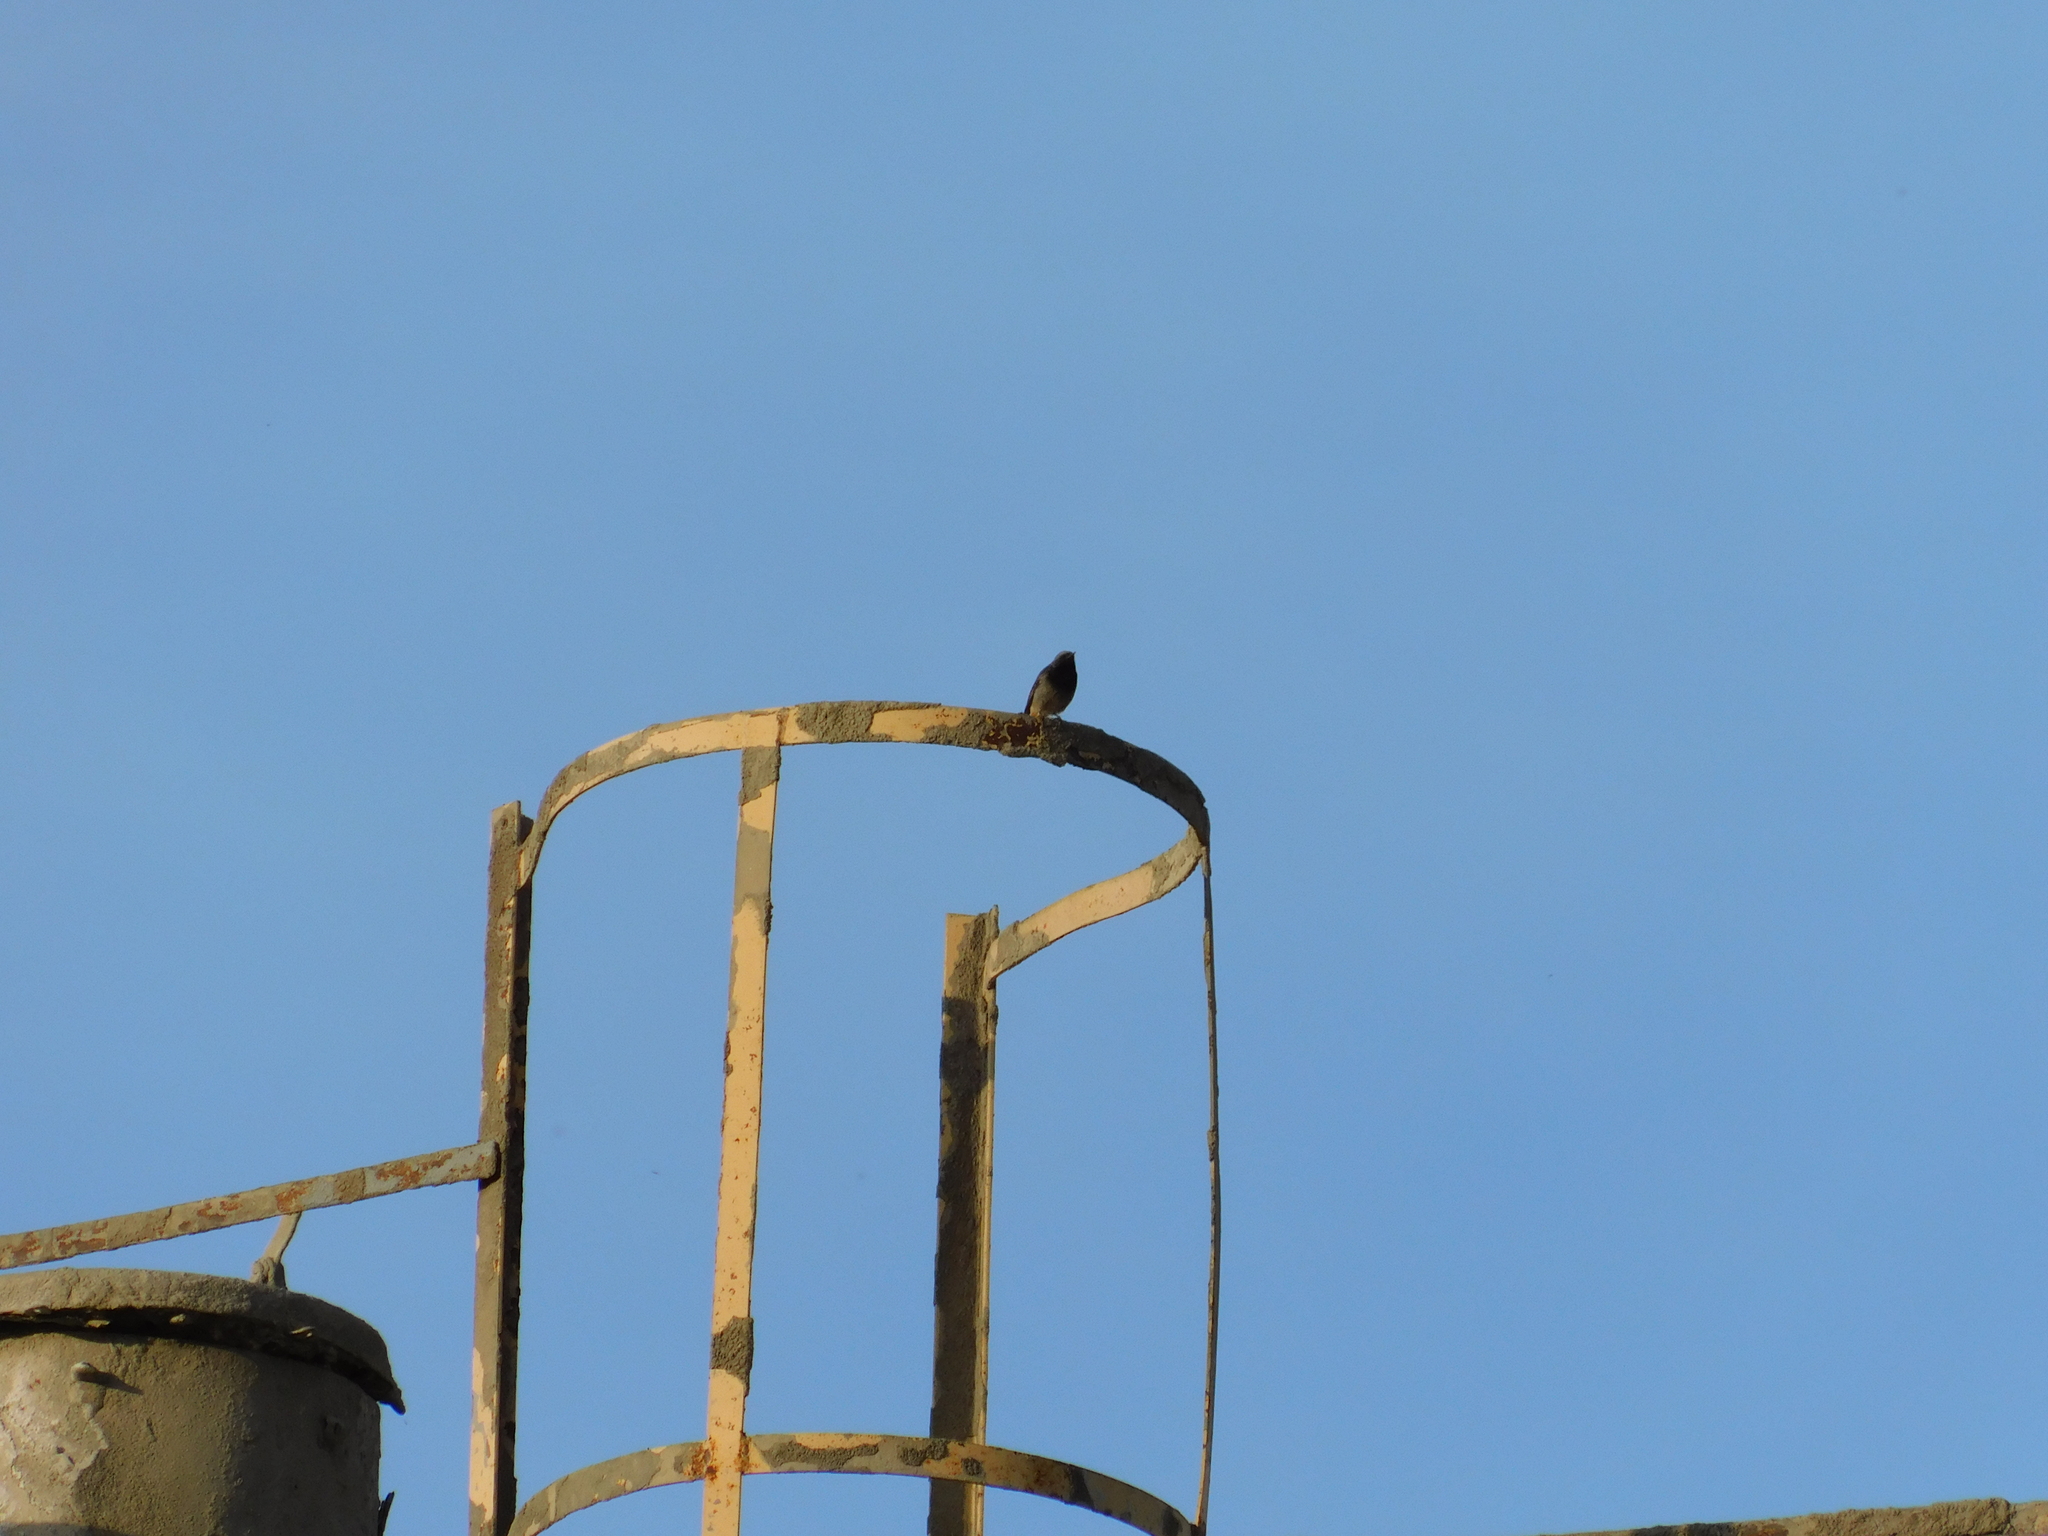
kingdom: Animalia
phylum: Chordata
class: Aves
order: Passeriformes
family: Muscicapidae
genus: Phoenicurus
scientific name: Phoenicurus ochruros
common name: Black redstart
